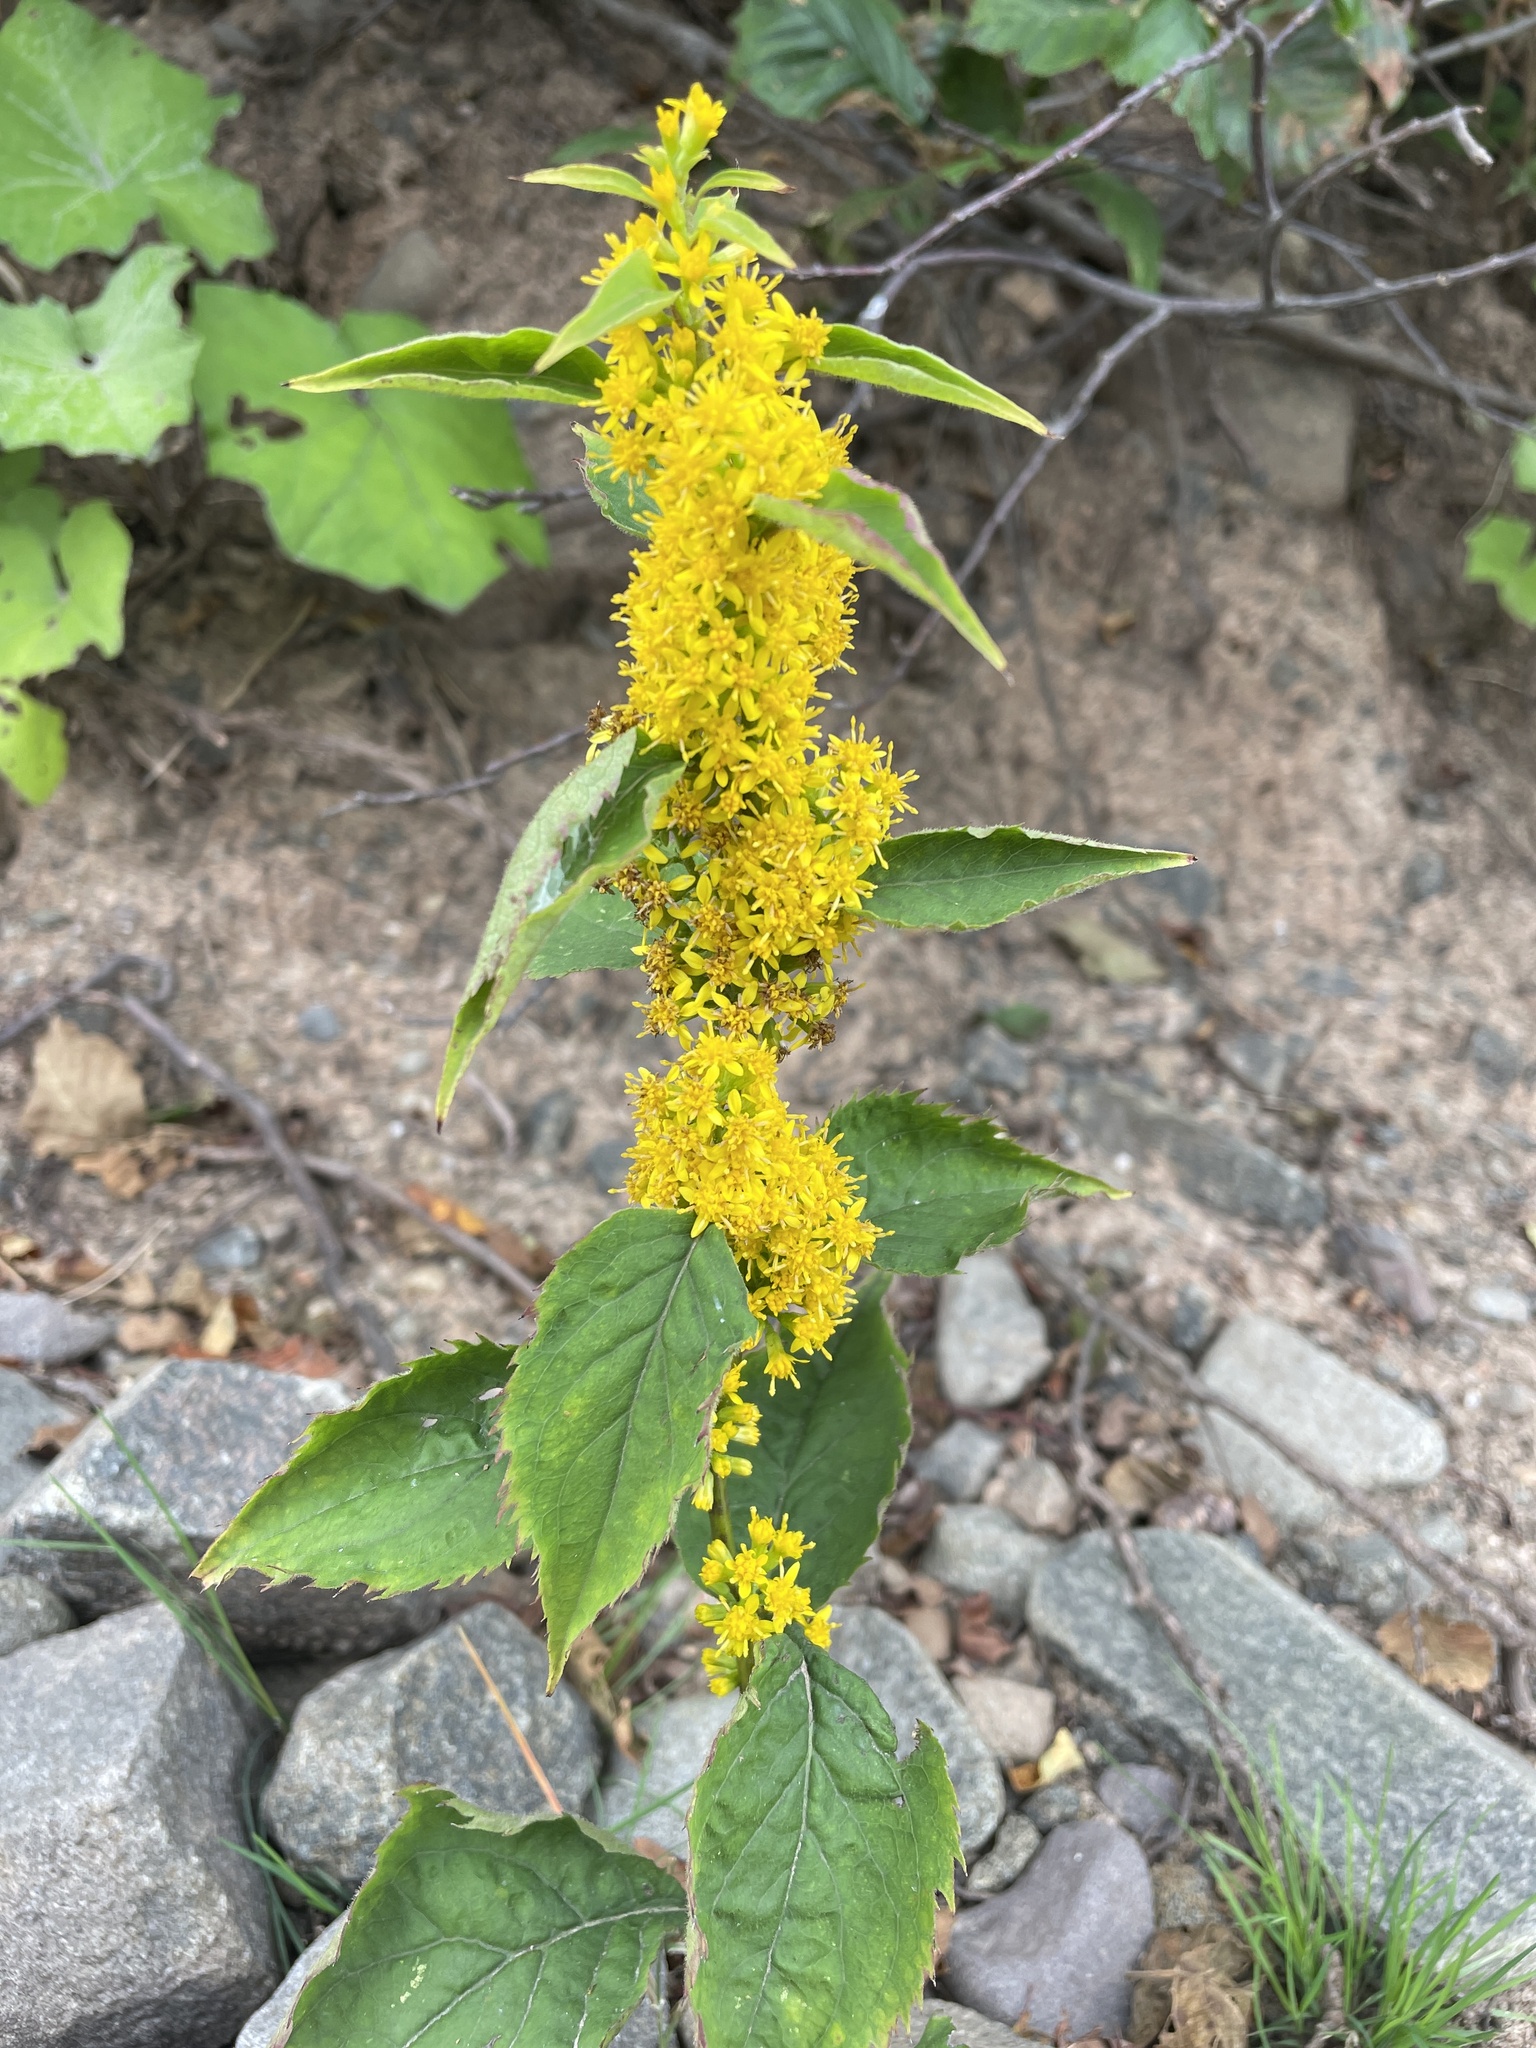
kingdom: Plantae
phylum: Tracheophyta
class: Magnoliopsida
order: Asterales
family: Asteraceae
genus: Solidago
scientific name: Solidago flexicaulis
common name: Zig-zag goldenrod
